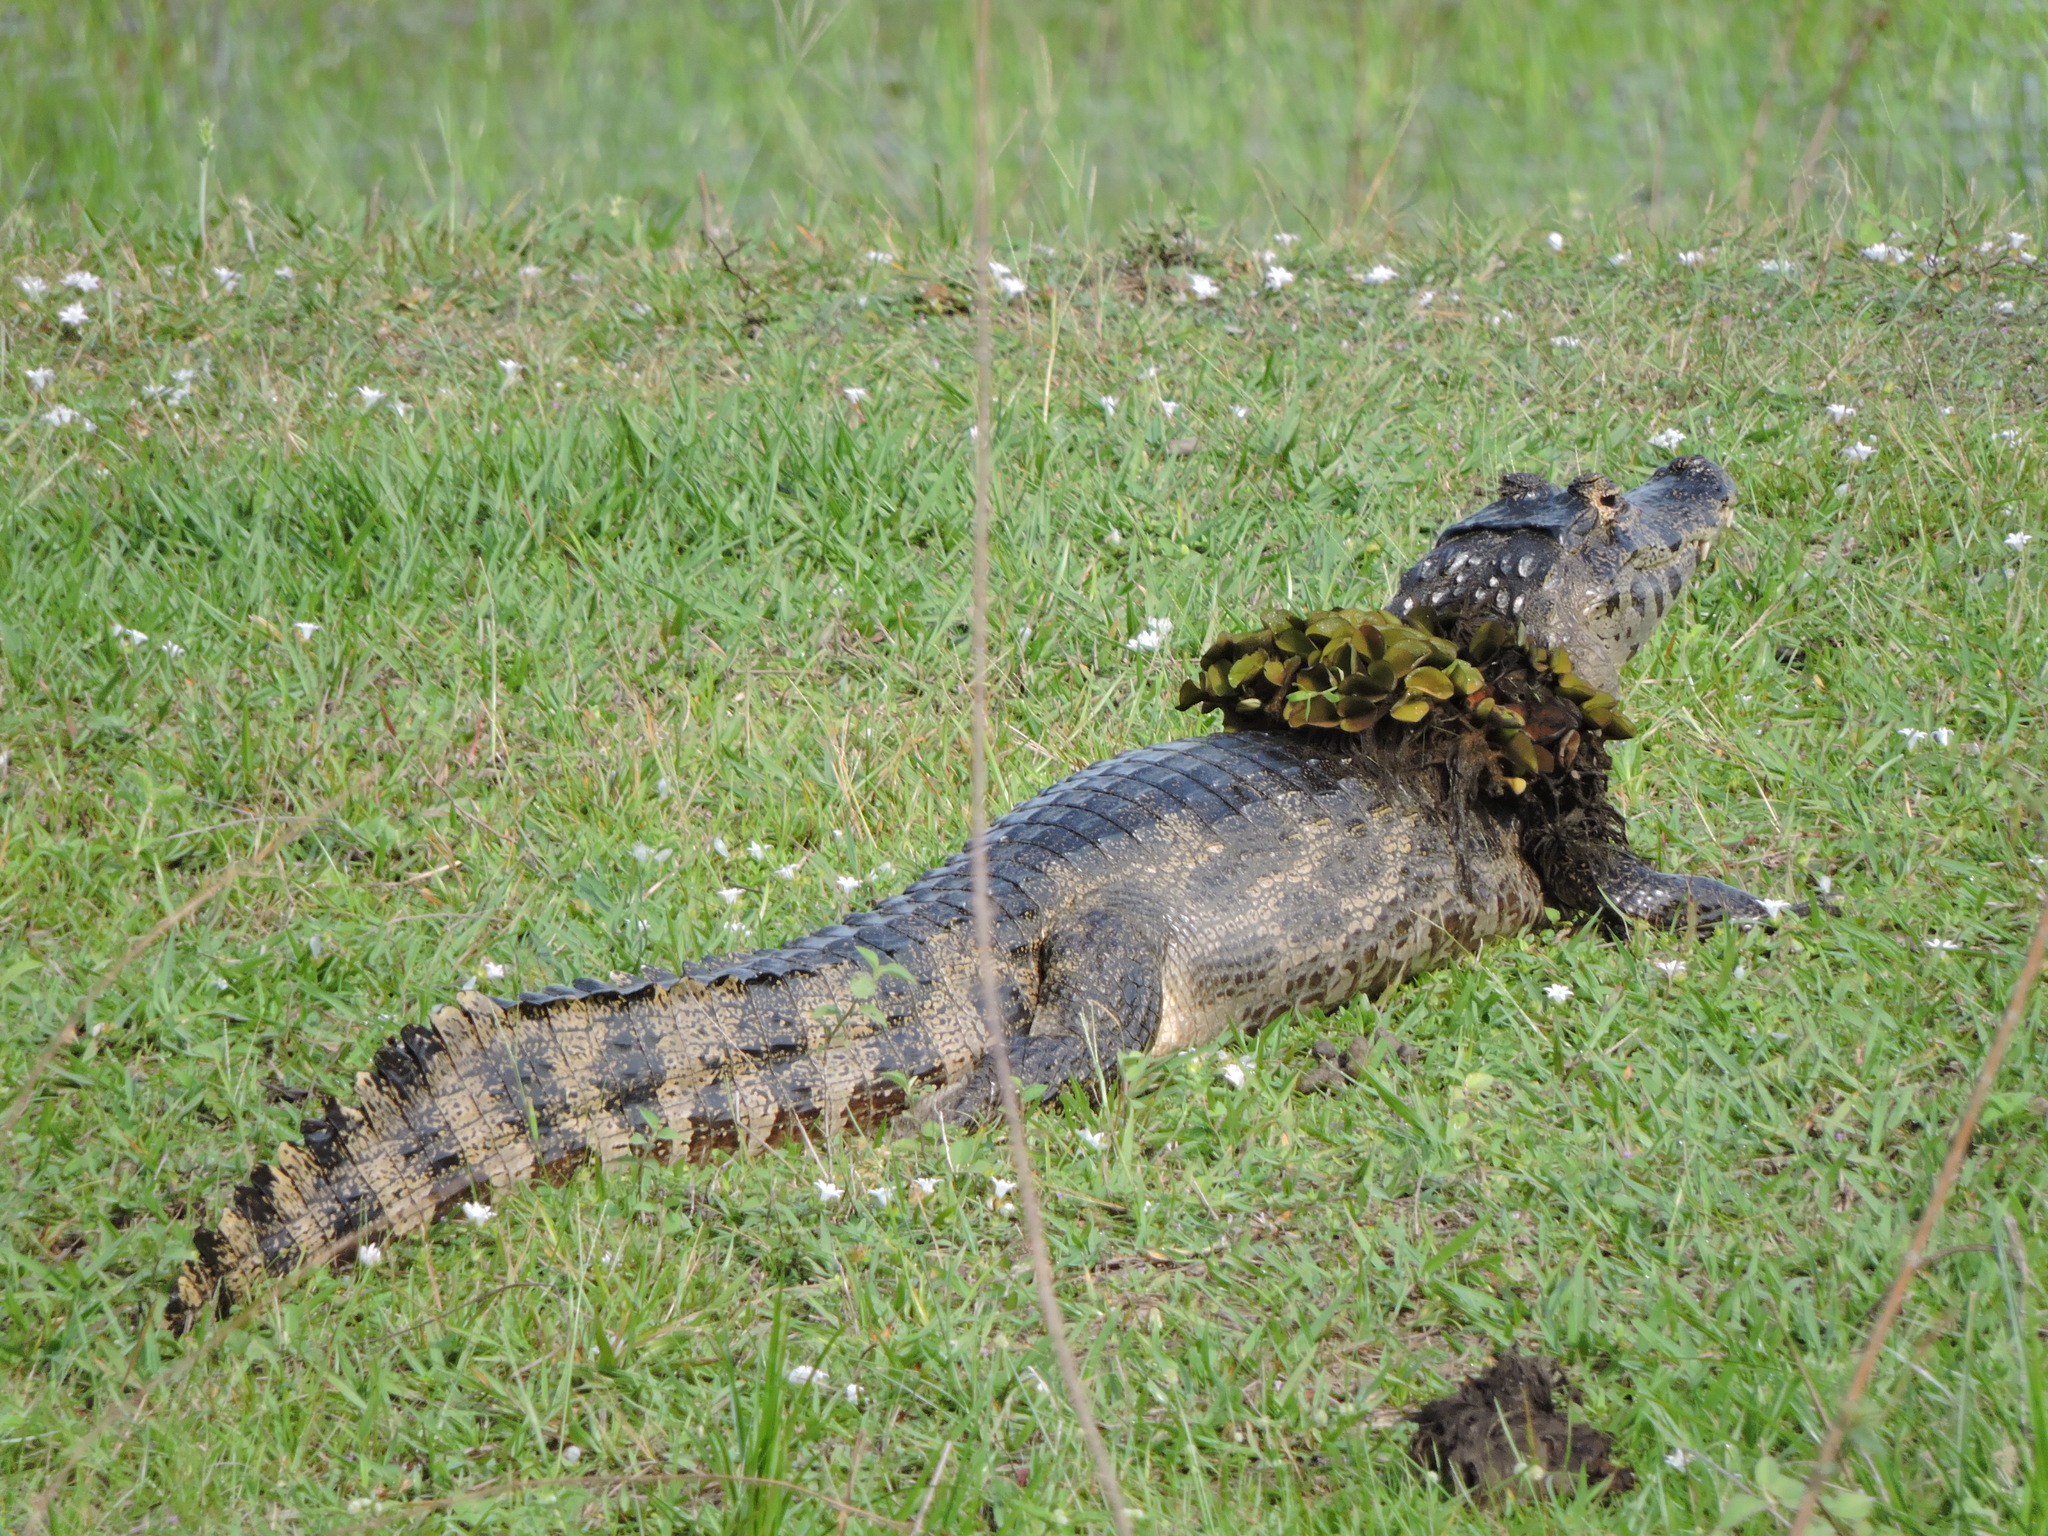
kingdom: Animalia
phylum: Chordata
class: Crocodylia
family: Alligatoridae
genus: Caiman
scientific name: Caiman yacare
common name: Yacare caiman
